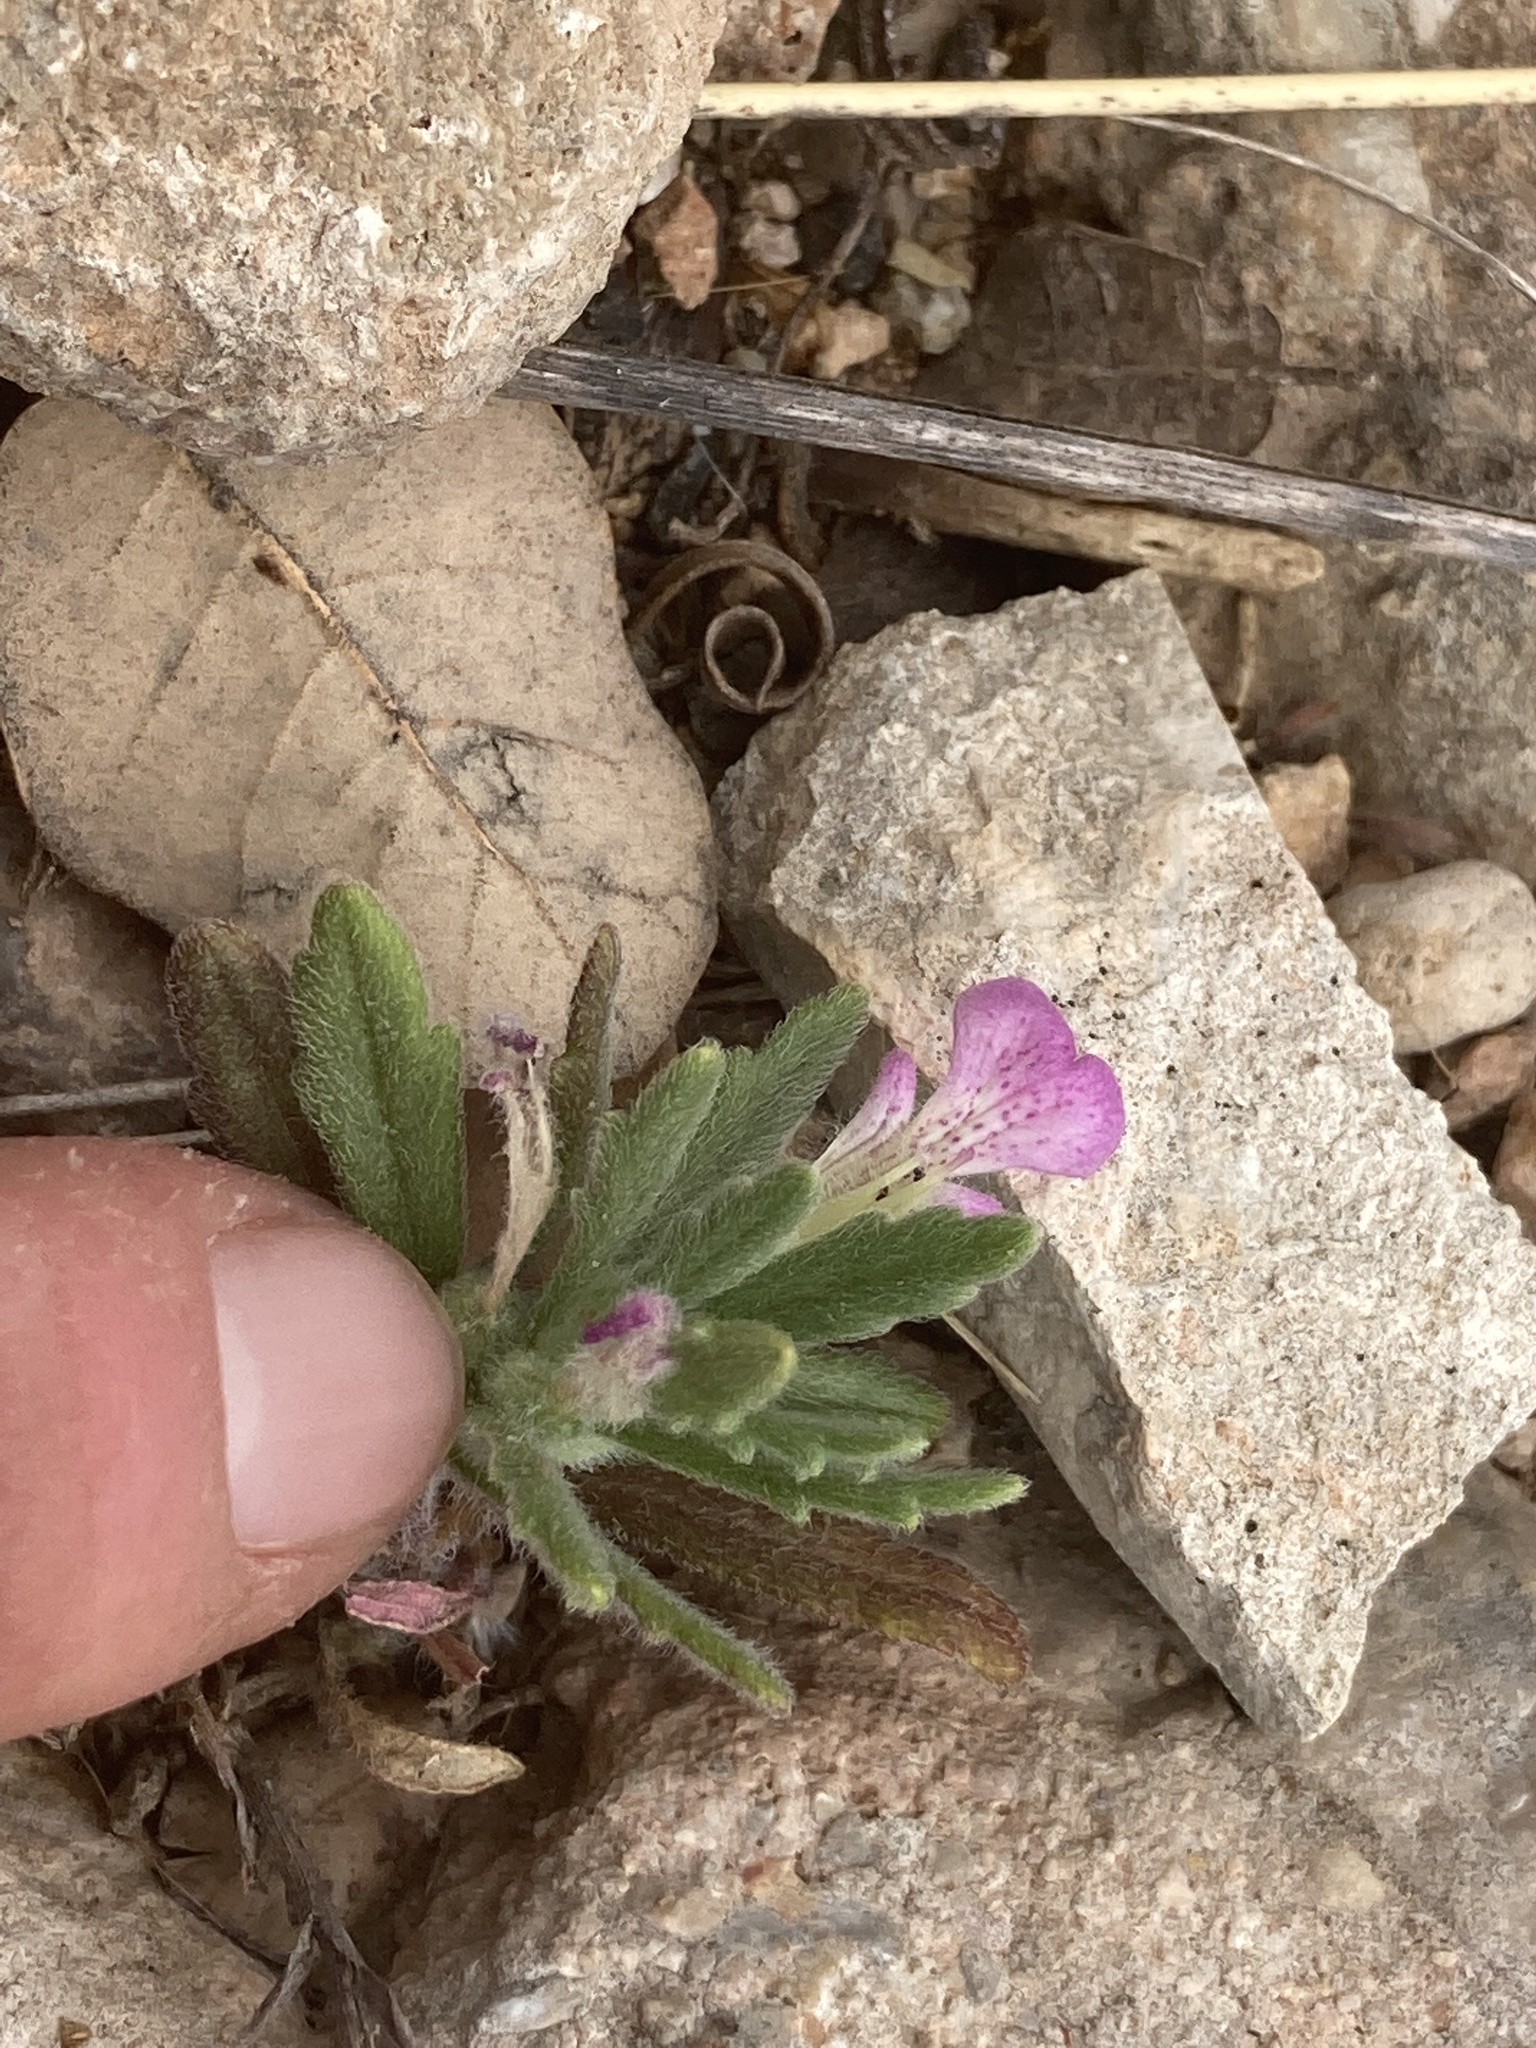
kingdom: Plantae
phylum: Tracheophyta
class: Magnoliopsida
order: Lamiales
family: Lamiaceae
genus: Ajuga
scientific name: Ajuga iva
